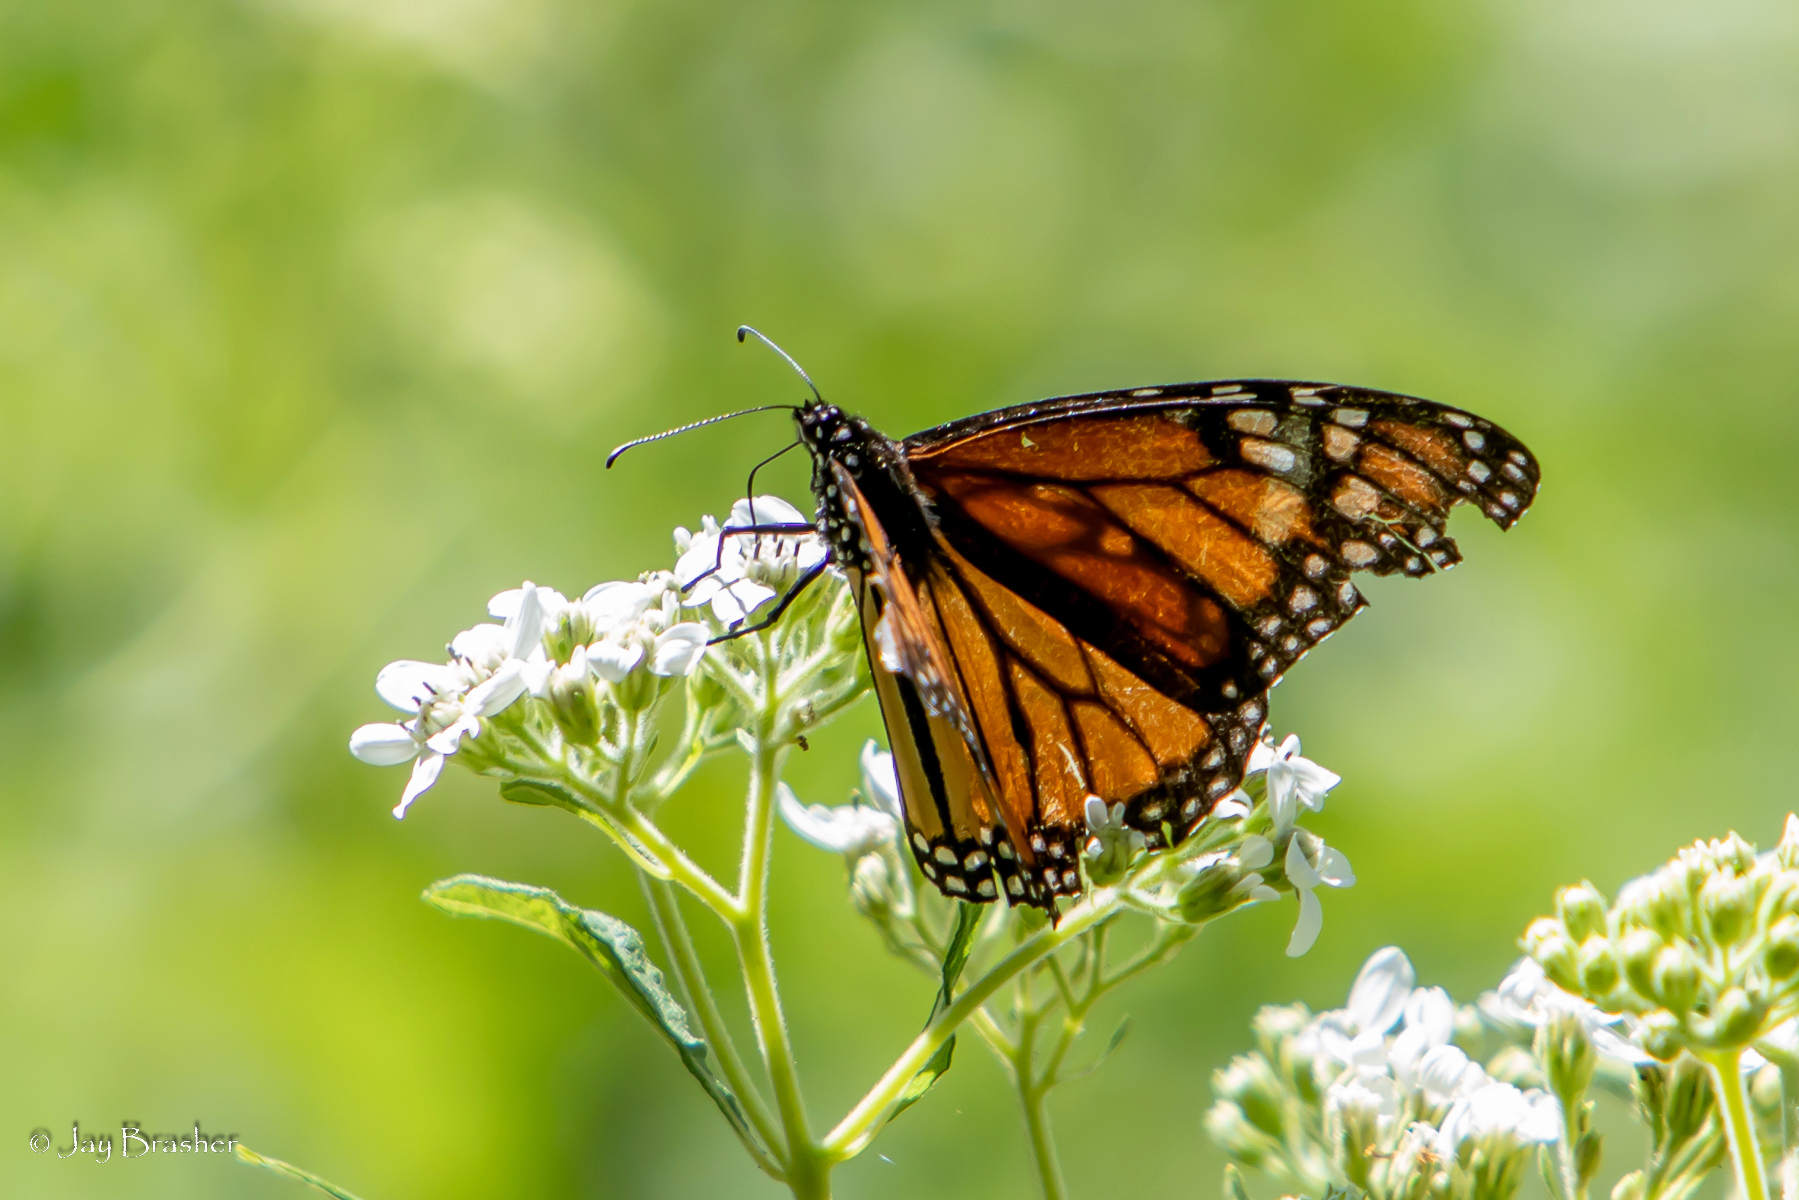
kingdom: Animalia
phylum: Arthropoda
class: Insecta
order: Lepidoptera
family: Nymphalidae
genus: Danaus
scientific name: Danaus plexippus
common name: Monarch
